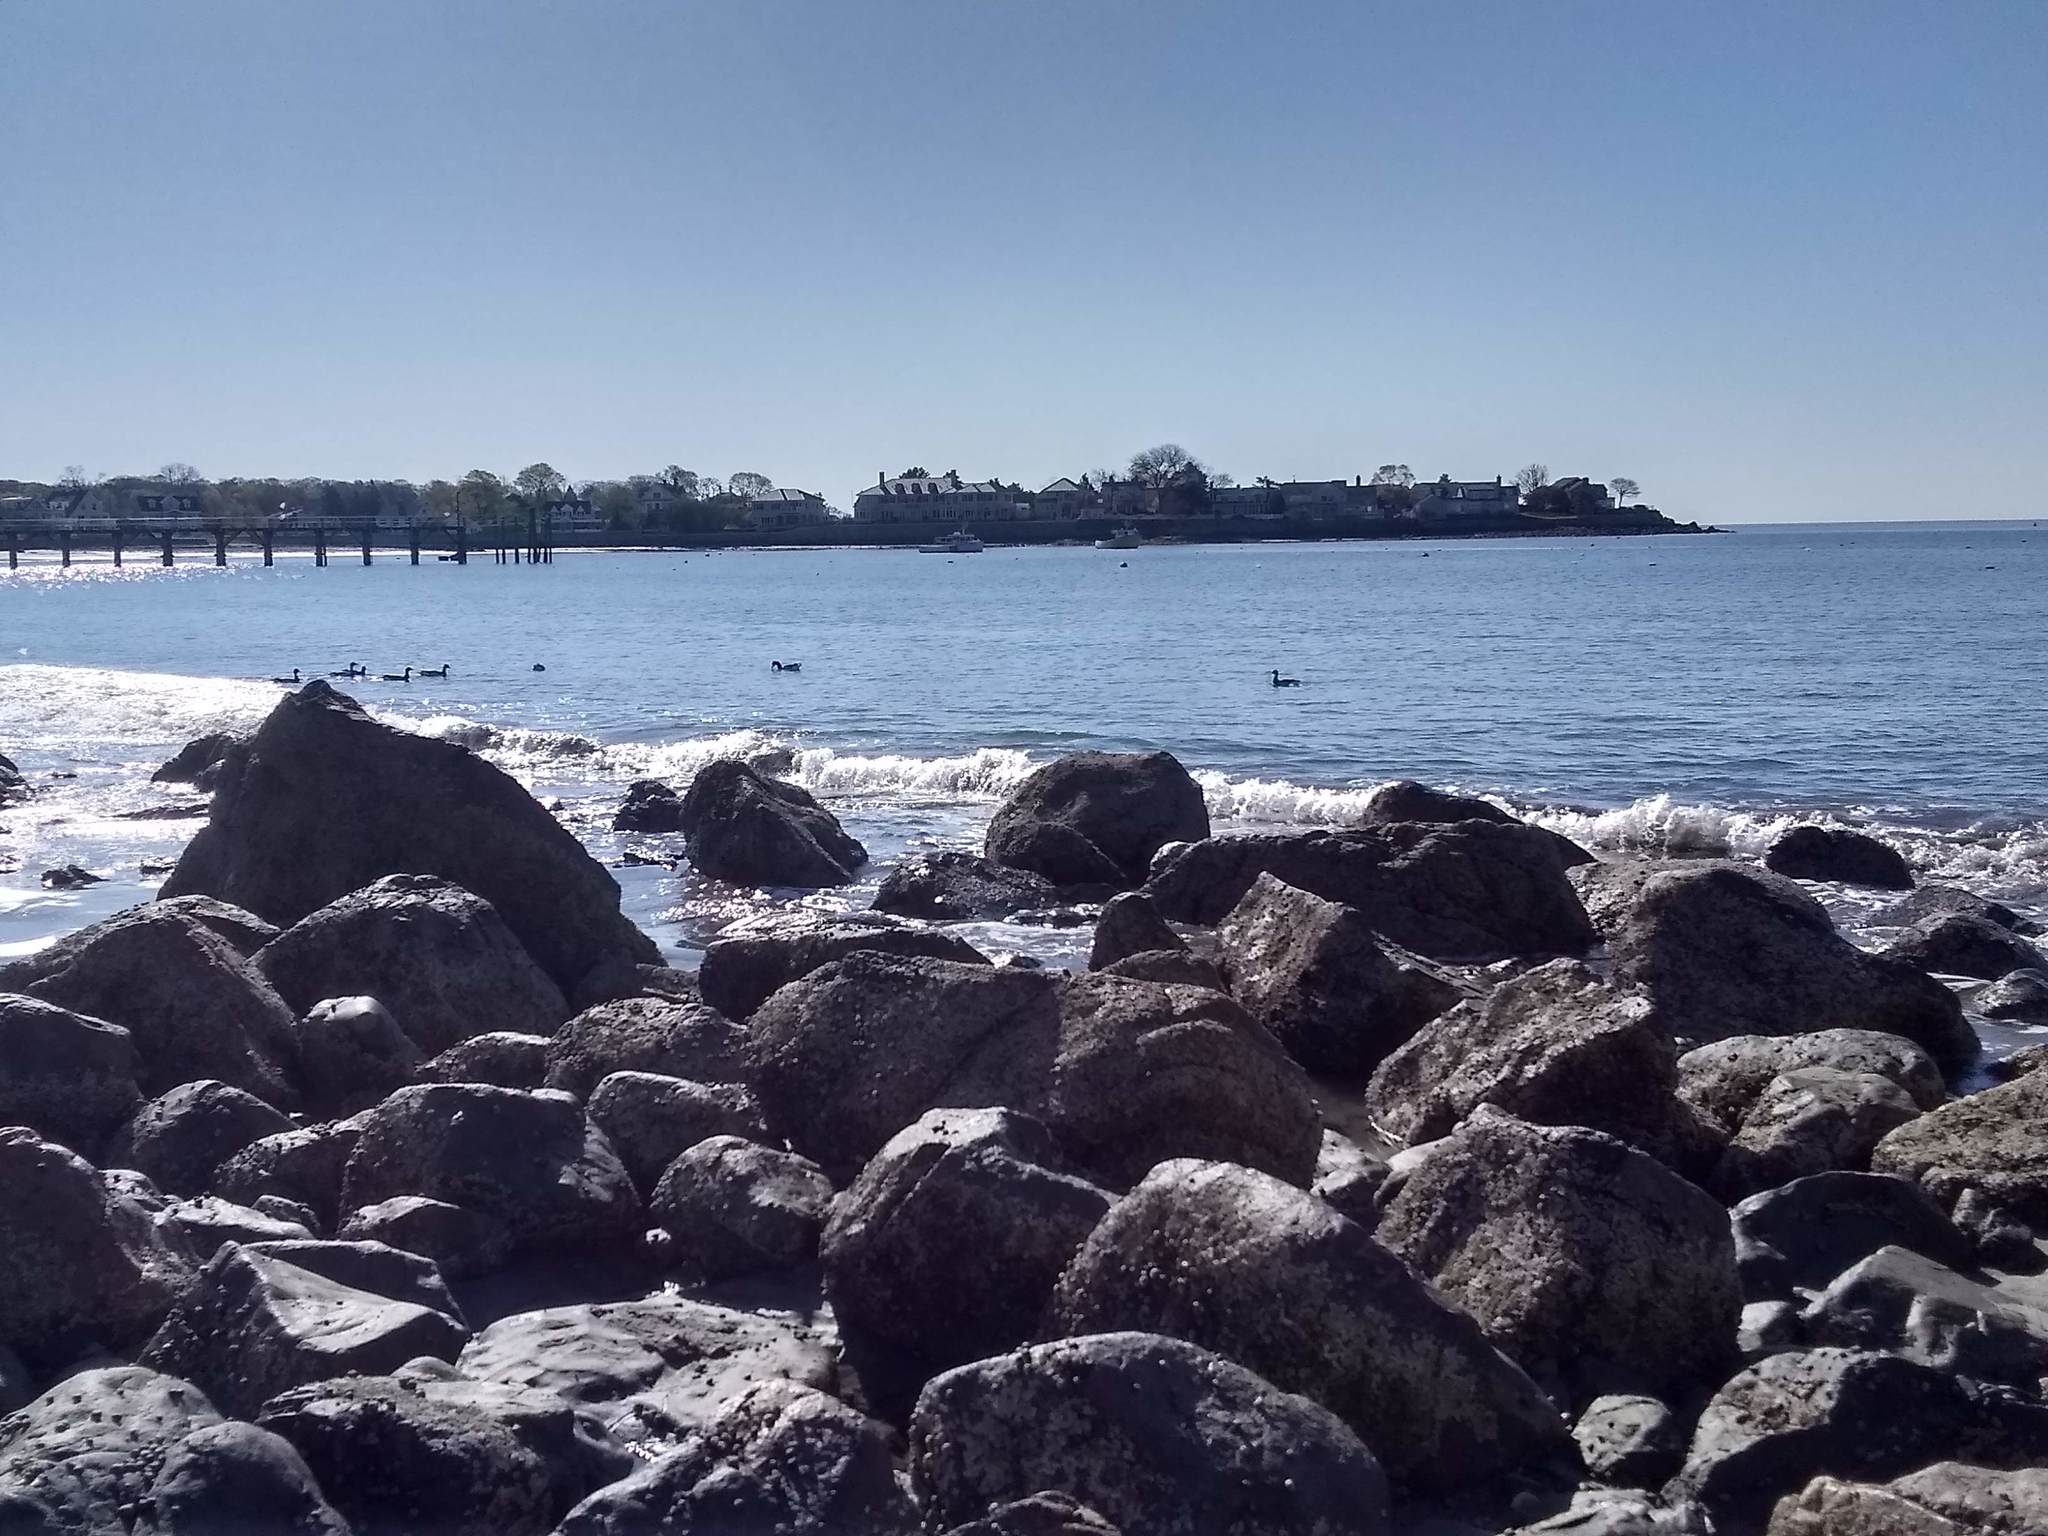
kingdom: Animalia
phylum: Chordata
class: Aves
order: Anseriformes
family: Anatidae
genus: Branta
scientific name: Branta bernicla
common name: Brant goose
